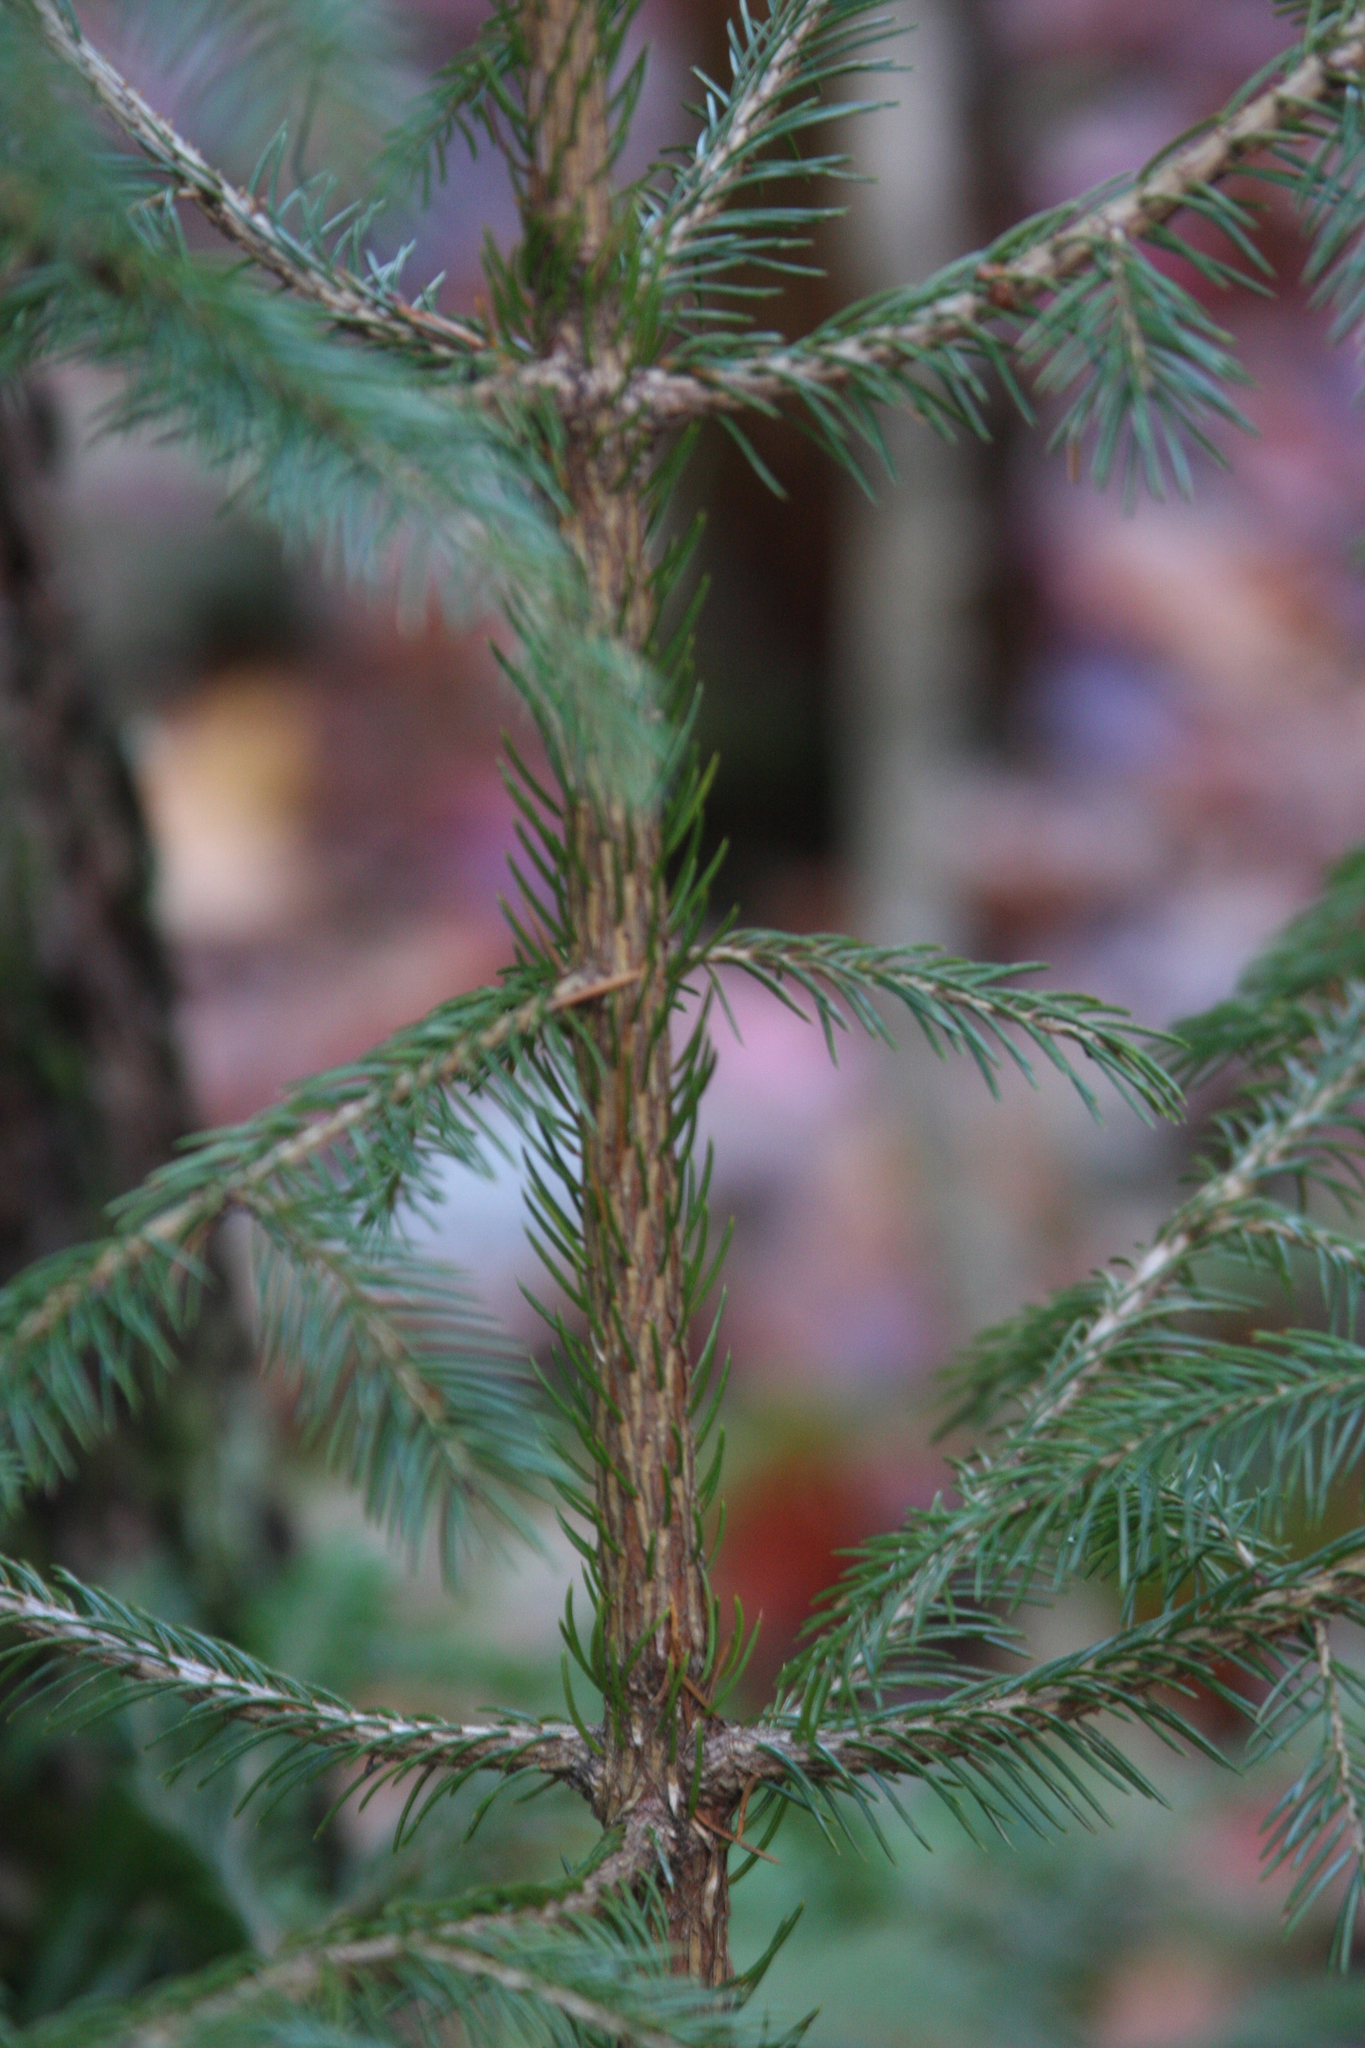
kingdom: Plantae
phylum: Tracheophyta
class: Pinopsida
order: Pinales
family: Pinaceae
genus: Picea
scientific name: Picea rubens
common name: Red spruce
